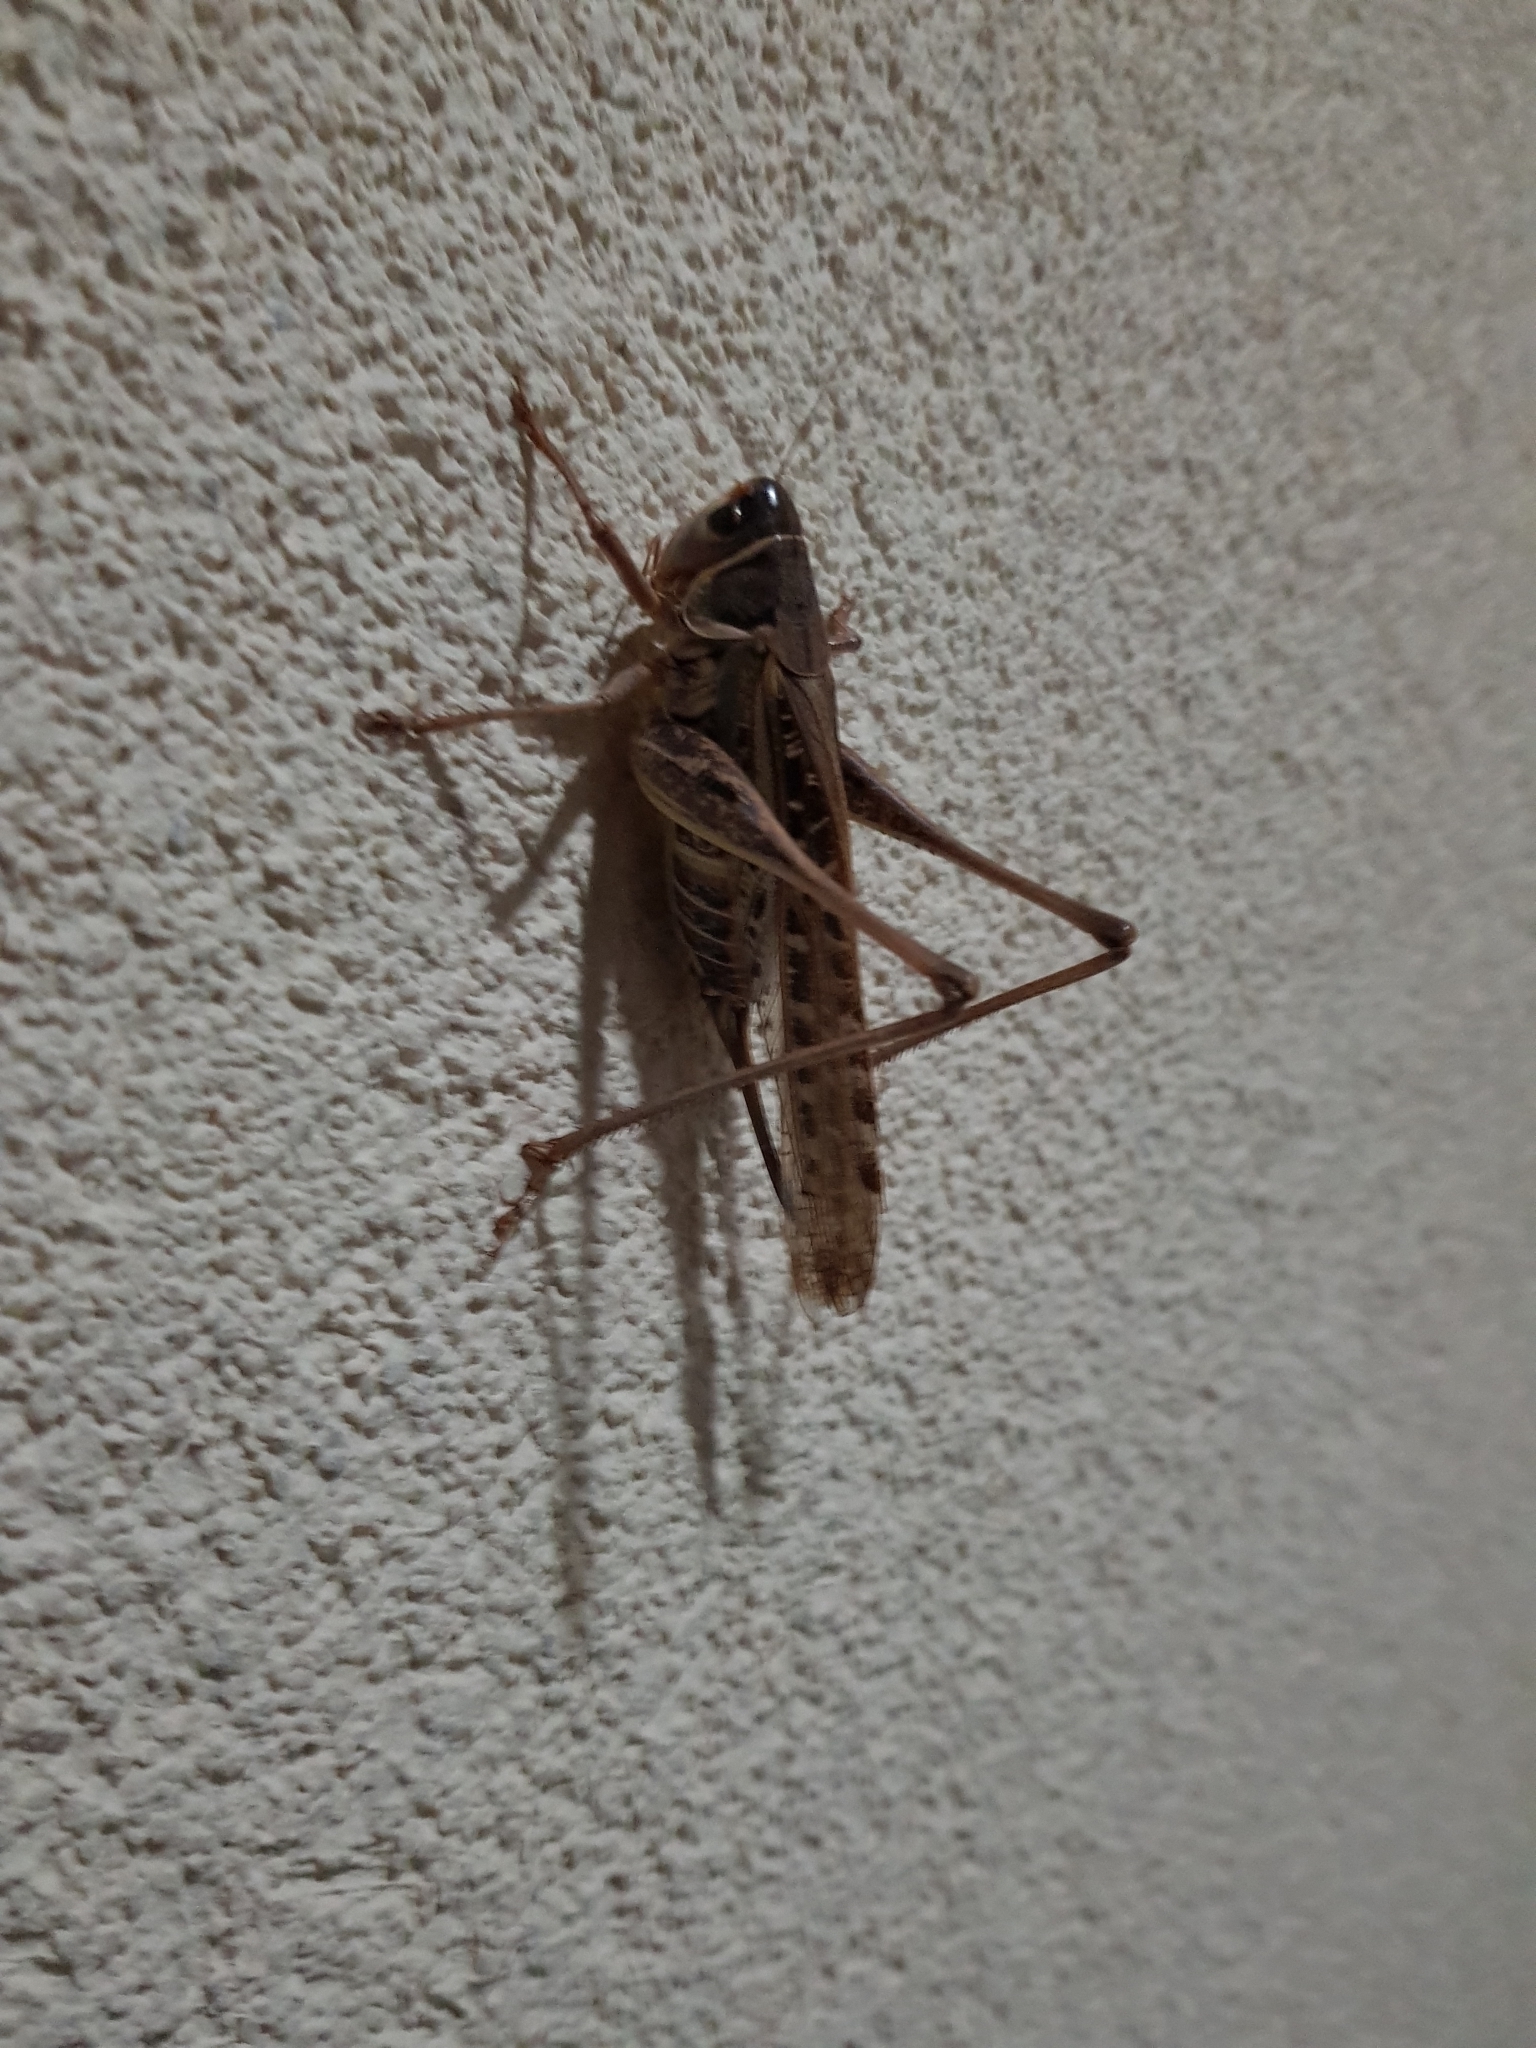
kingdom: Animalia
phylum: Arthropoda
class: Insecta
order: Orthoptera
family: Tettigoniidae
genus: Decticus
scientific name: Decticus albifrons
